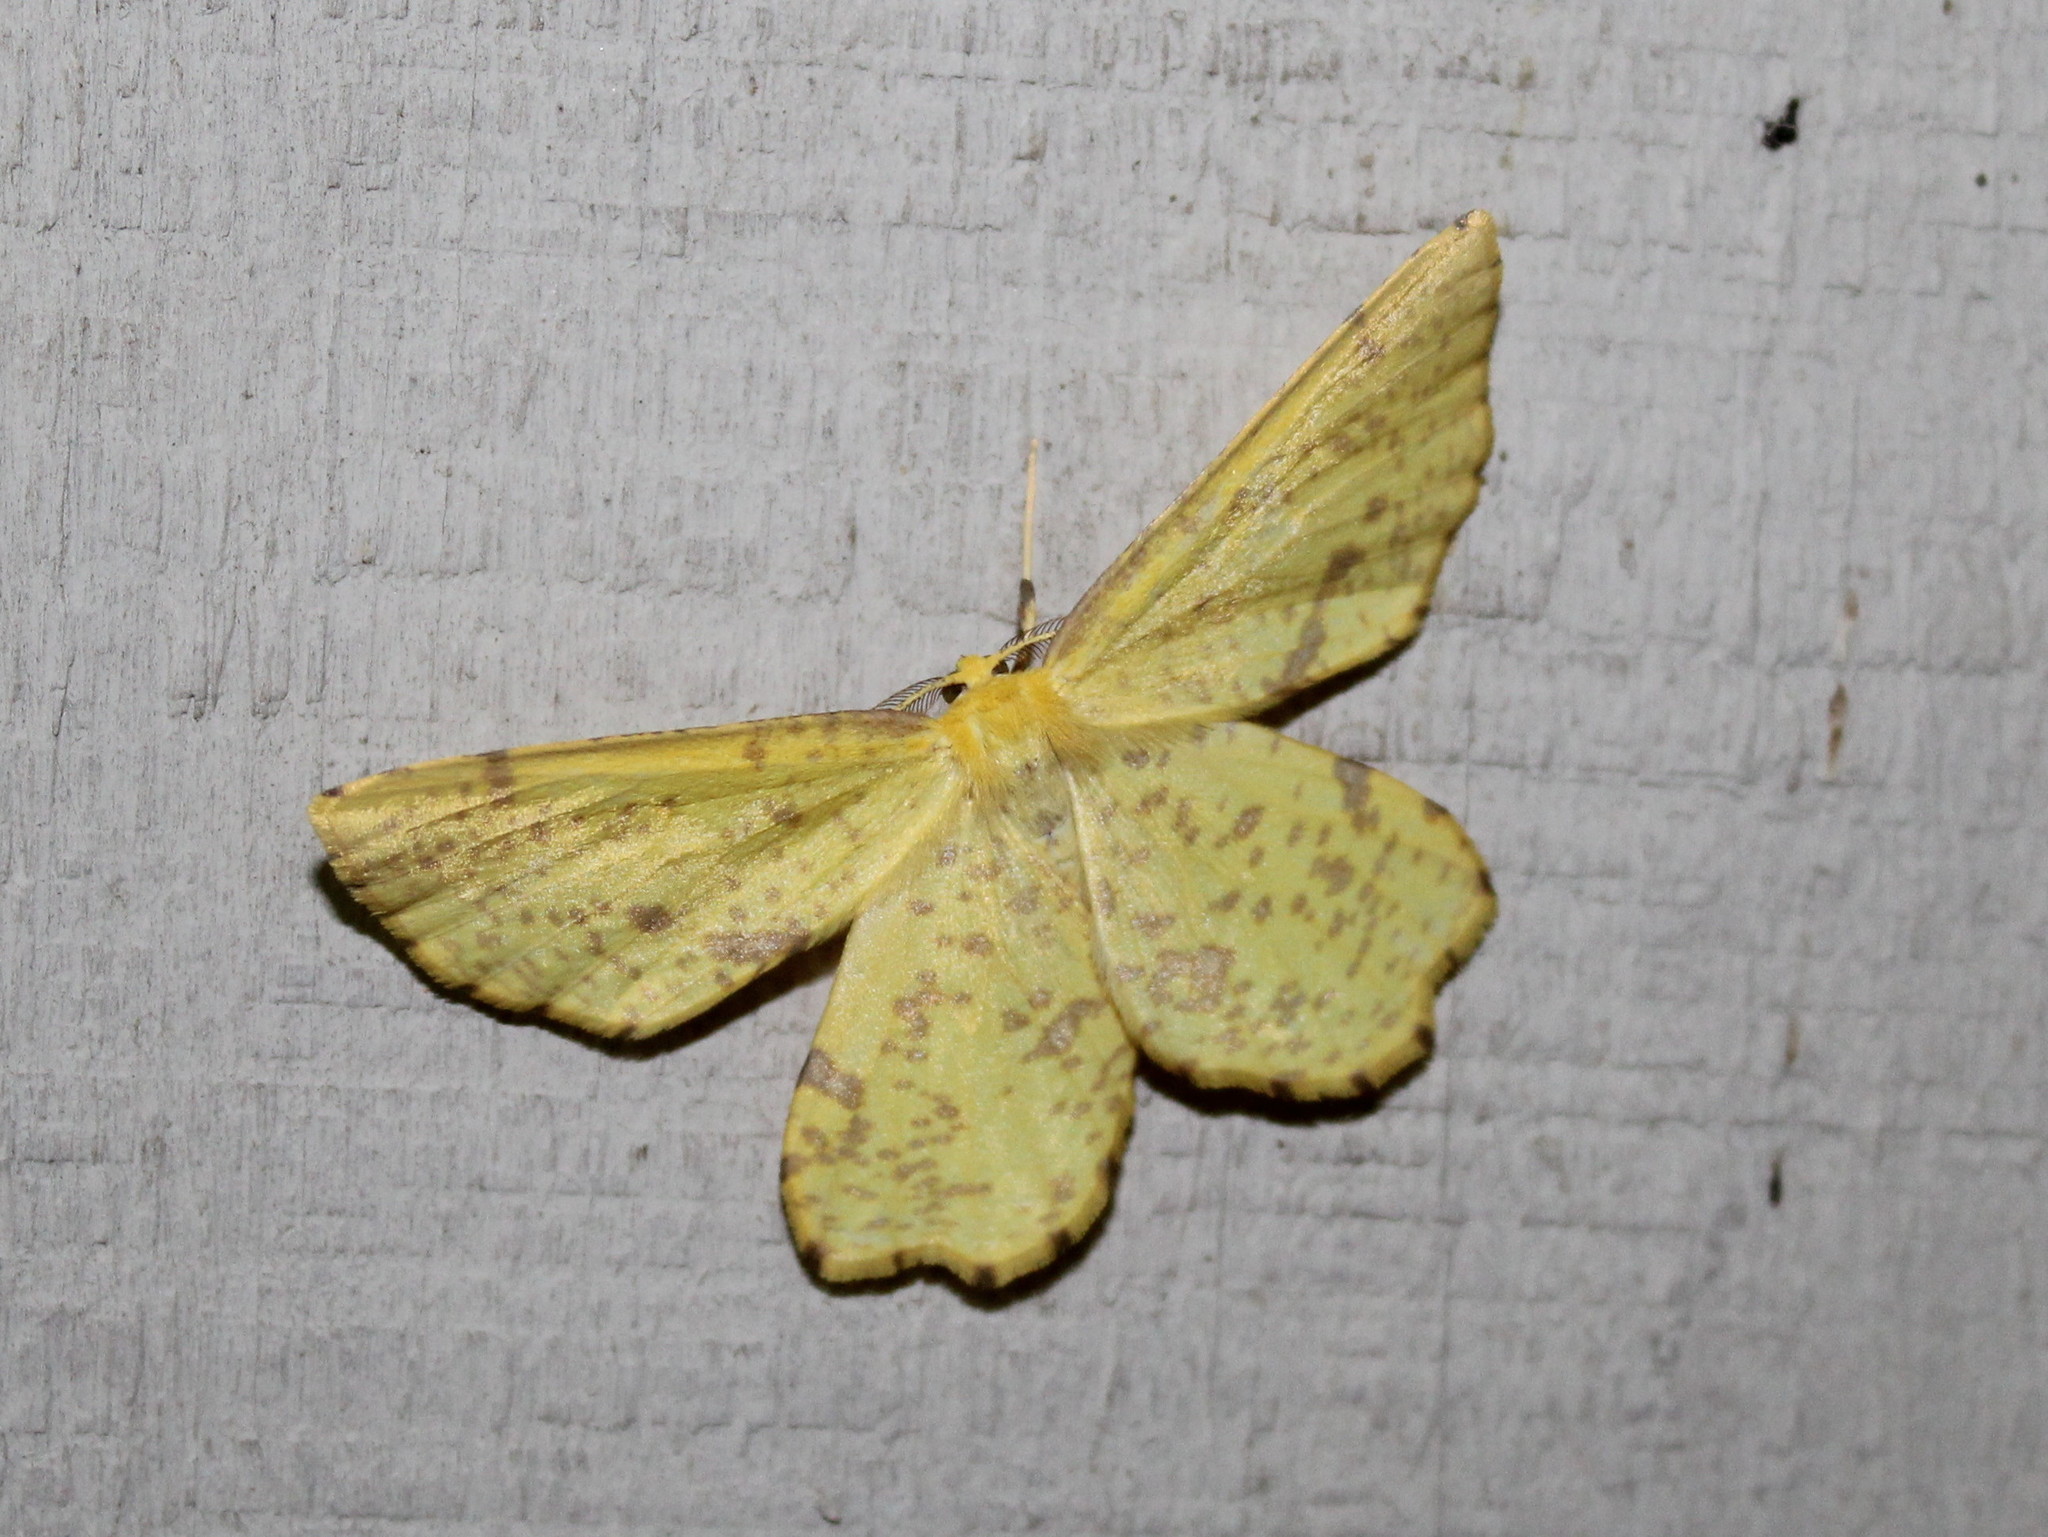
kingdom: Animalia
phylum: Arthropoda
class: Insecta
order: Lepidoptera
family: Geometridae
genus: Xanthotype
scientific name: Xanthotype
